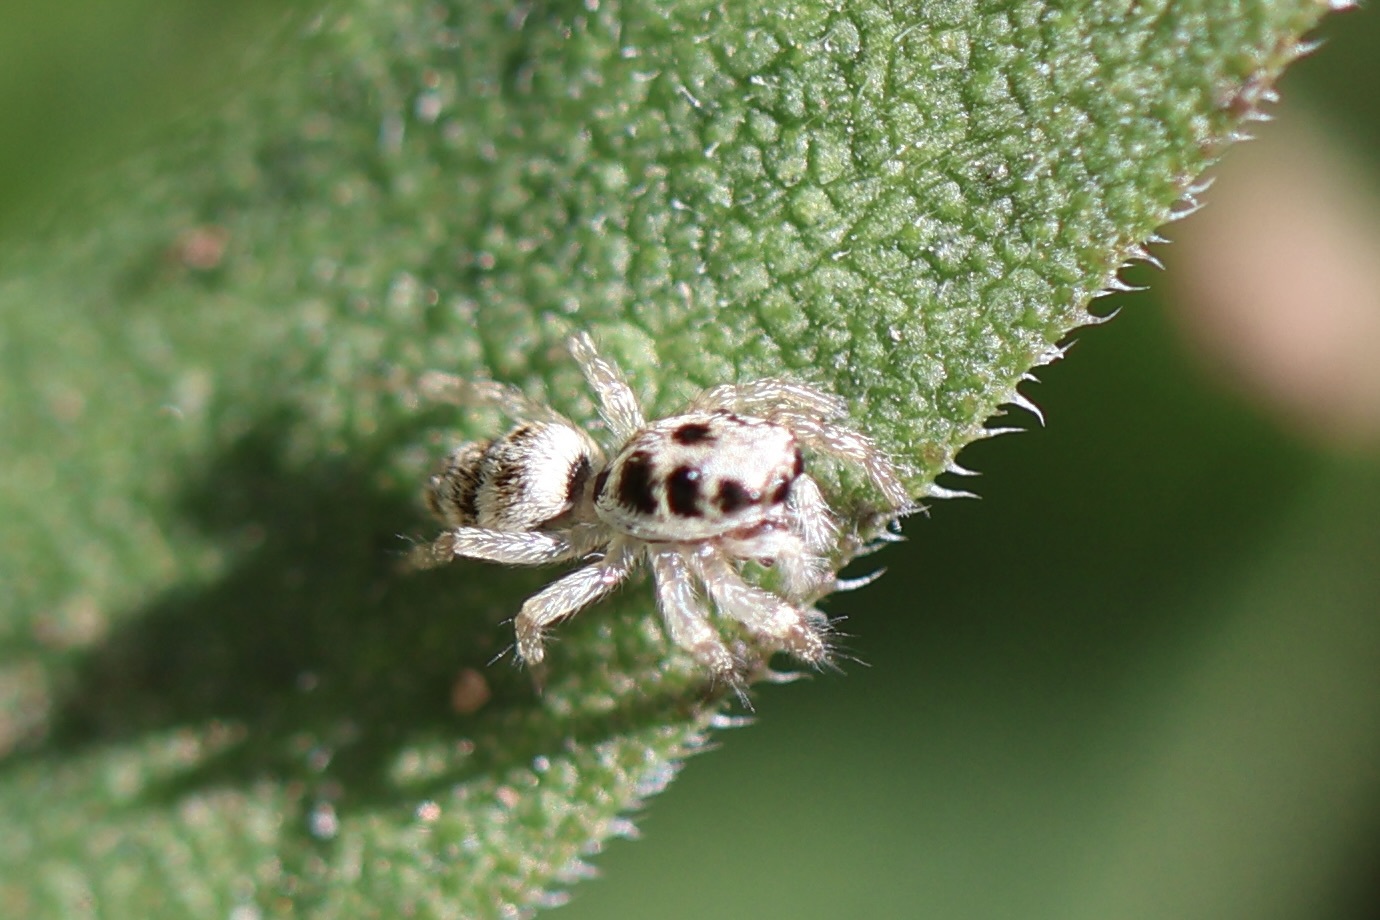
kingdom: Animalia
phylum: Arthropoda
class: Arachnida
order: Araneae
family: Salticidae
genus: Salticus
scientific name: Salticus scenicus
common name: Zebra jumper
